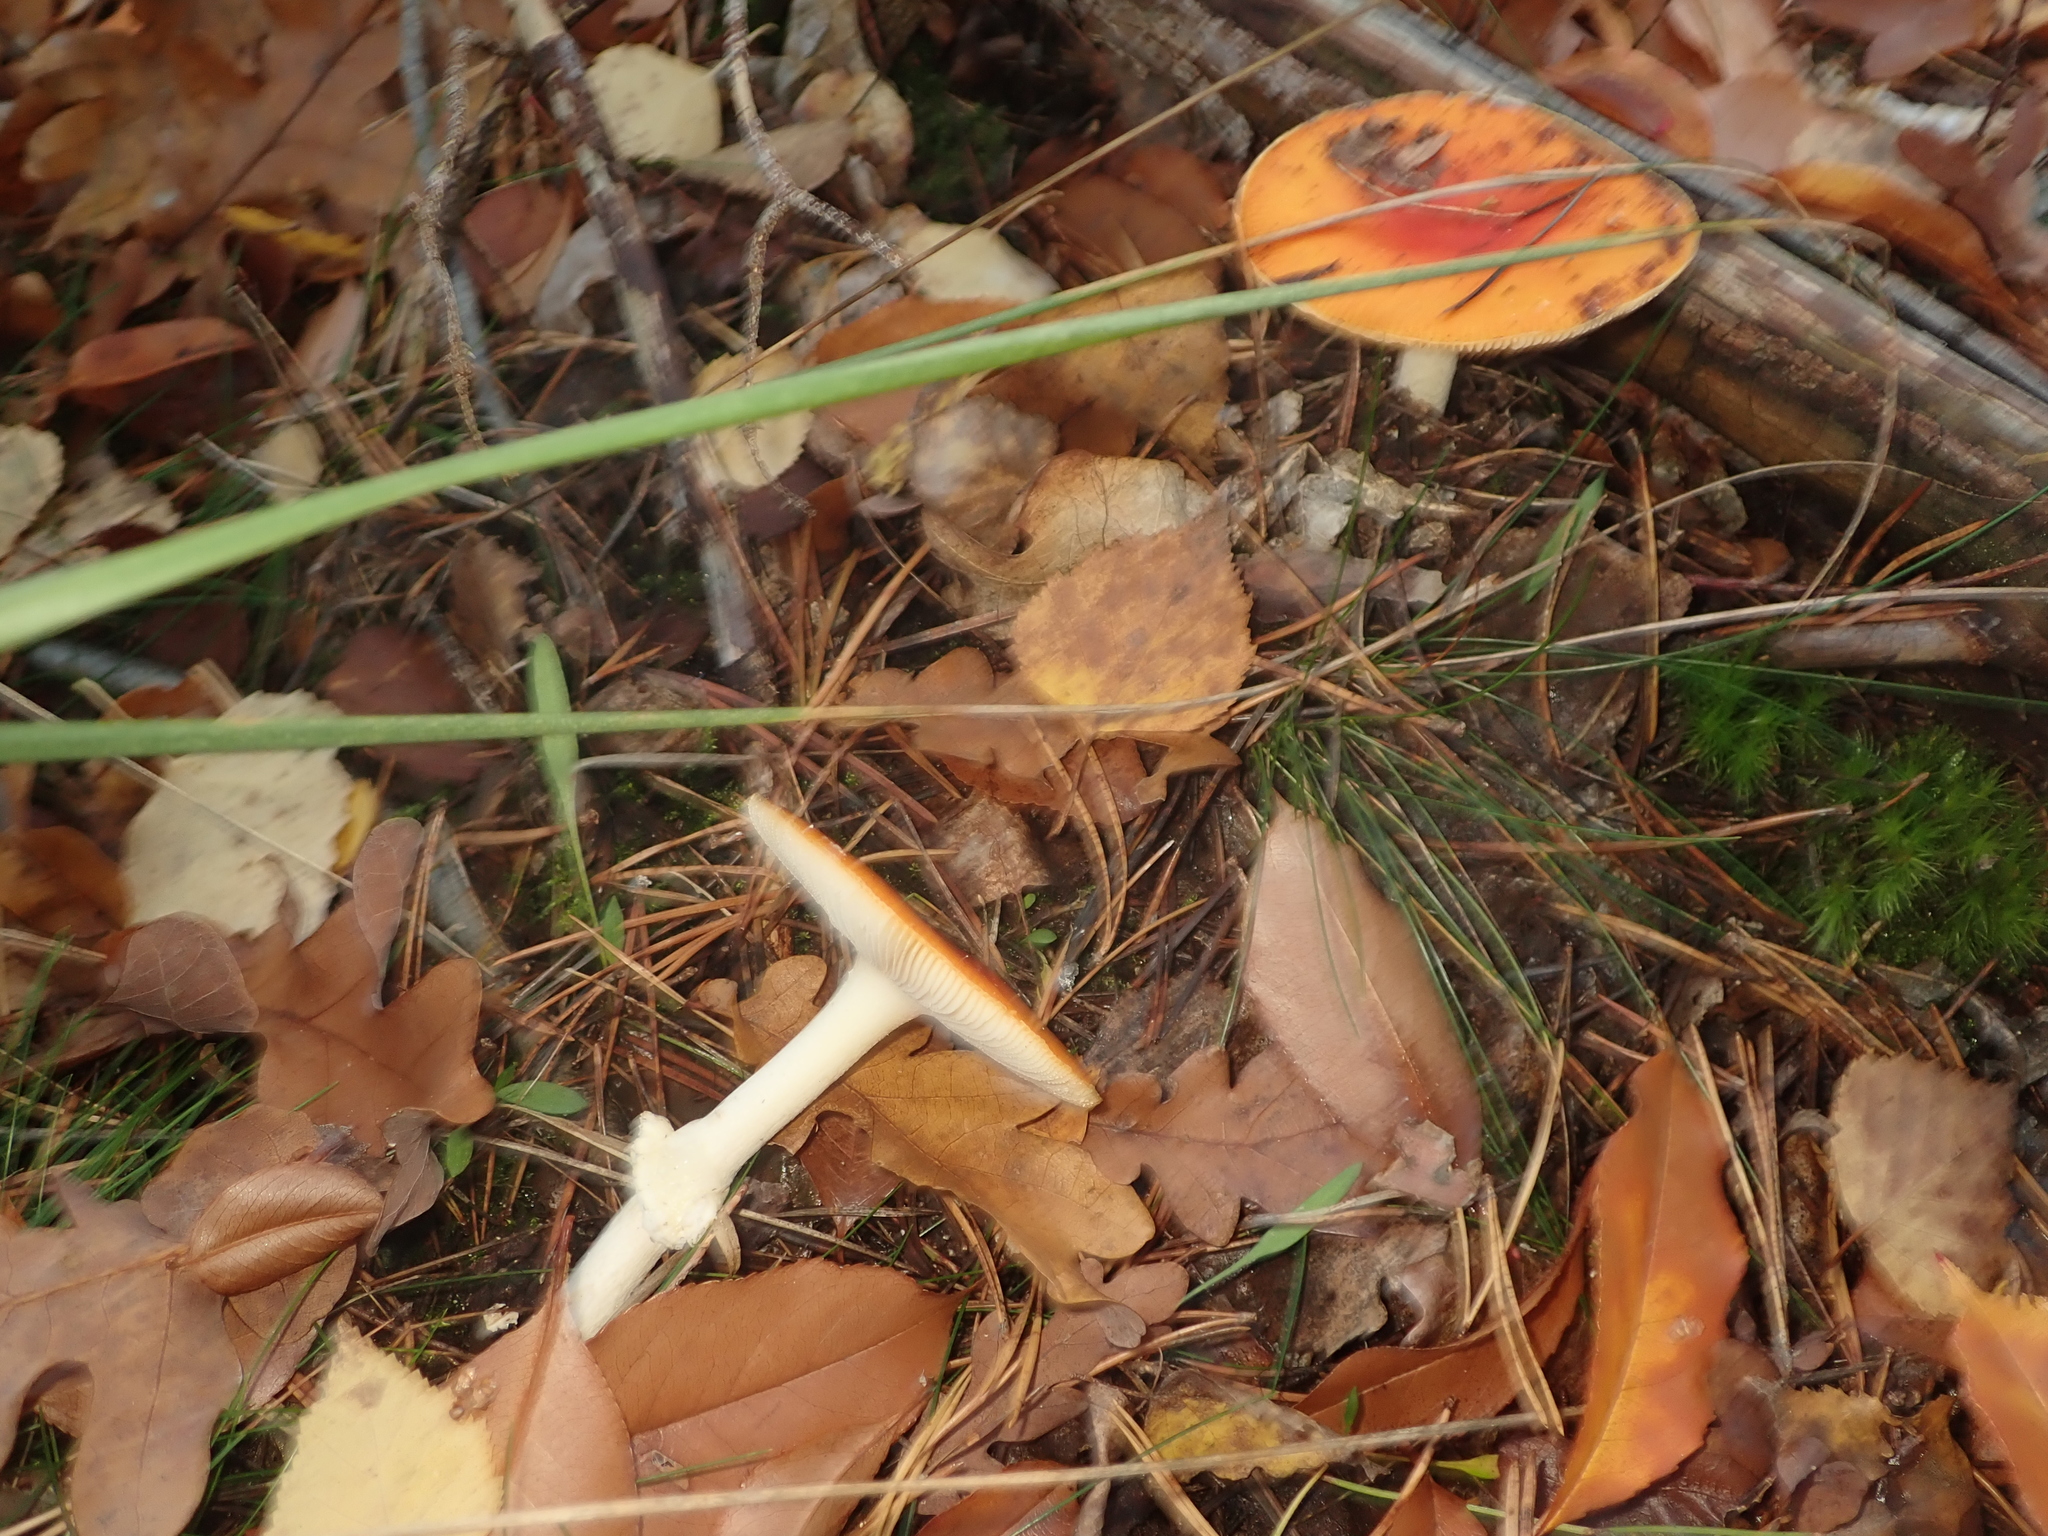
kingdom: Fungi
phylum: Basidiomycota
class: Agaricomycetes
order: Agaricales
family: Amanitaceae
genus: Amanita
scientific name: Amanita muscaria
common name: Fly agaric
